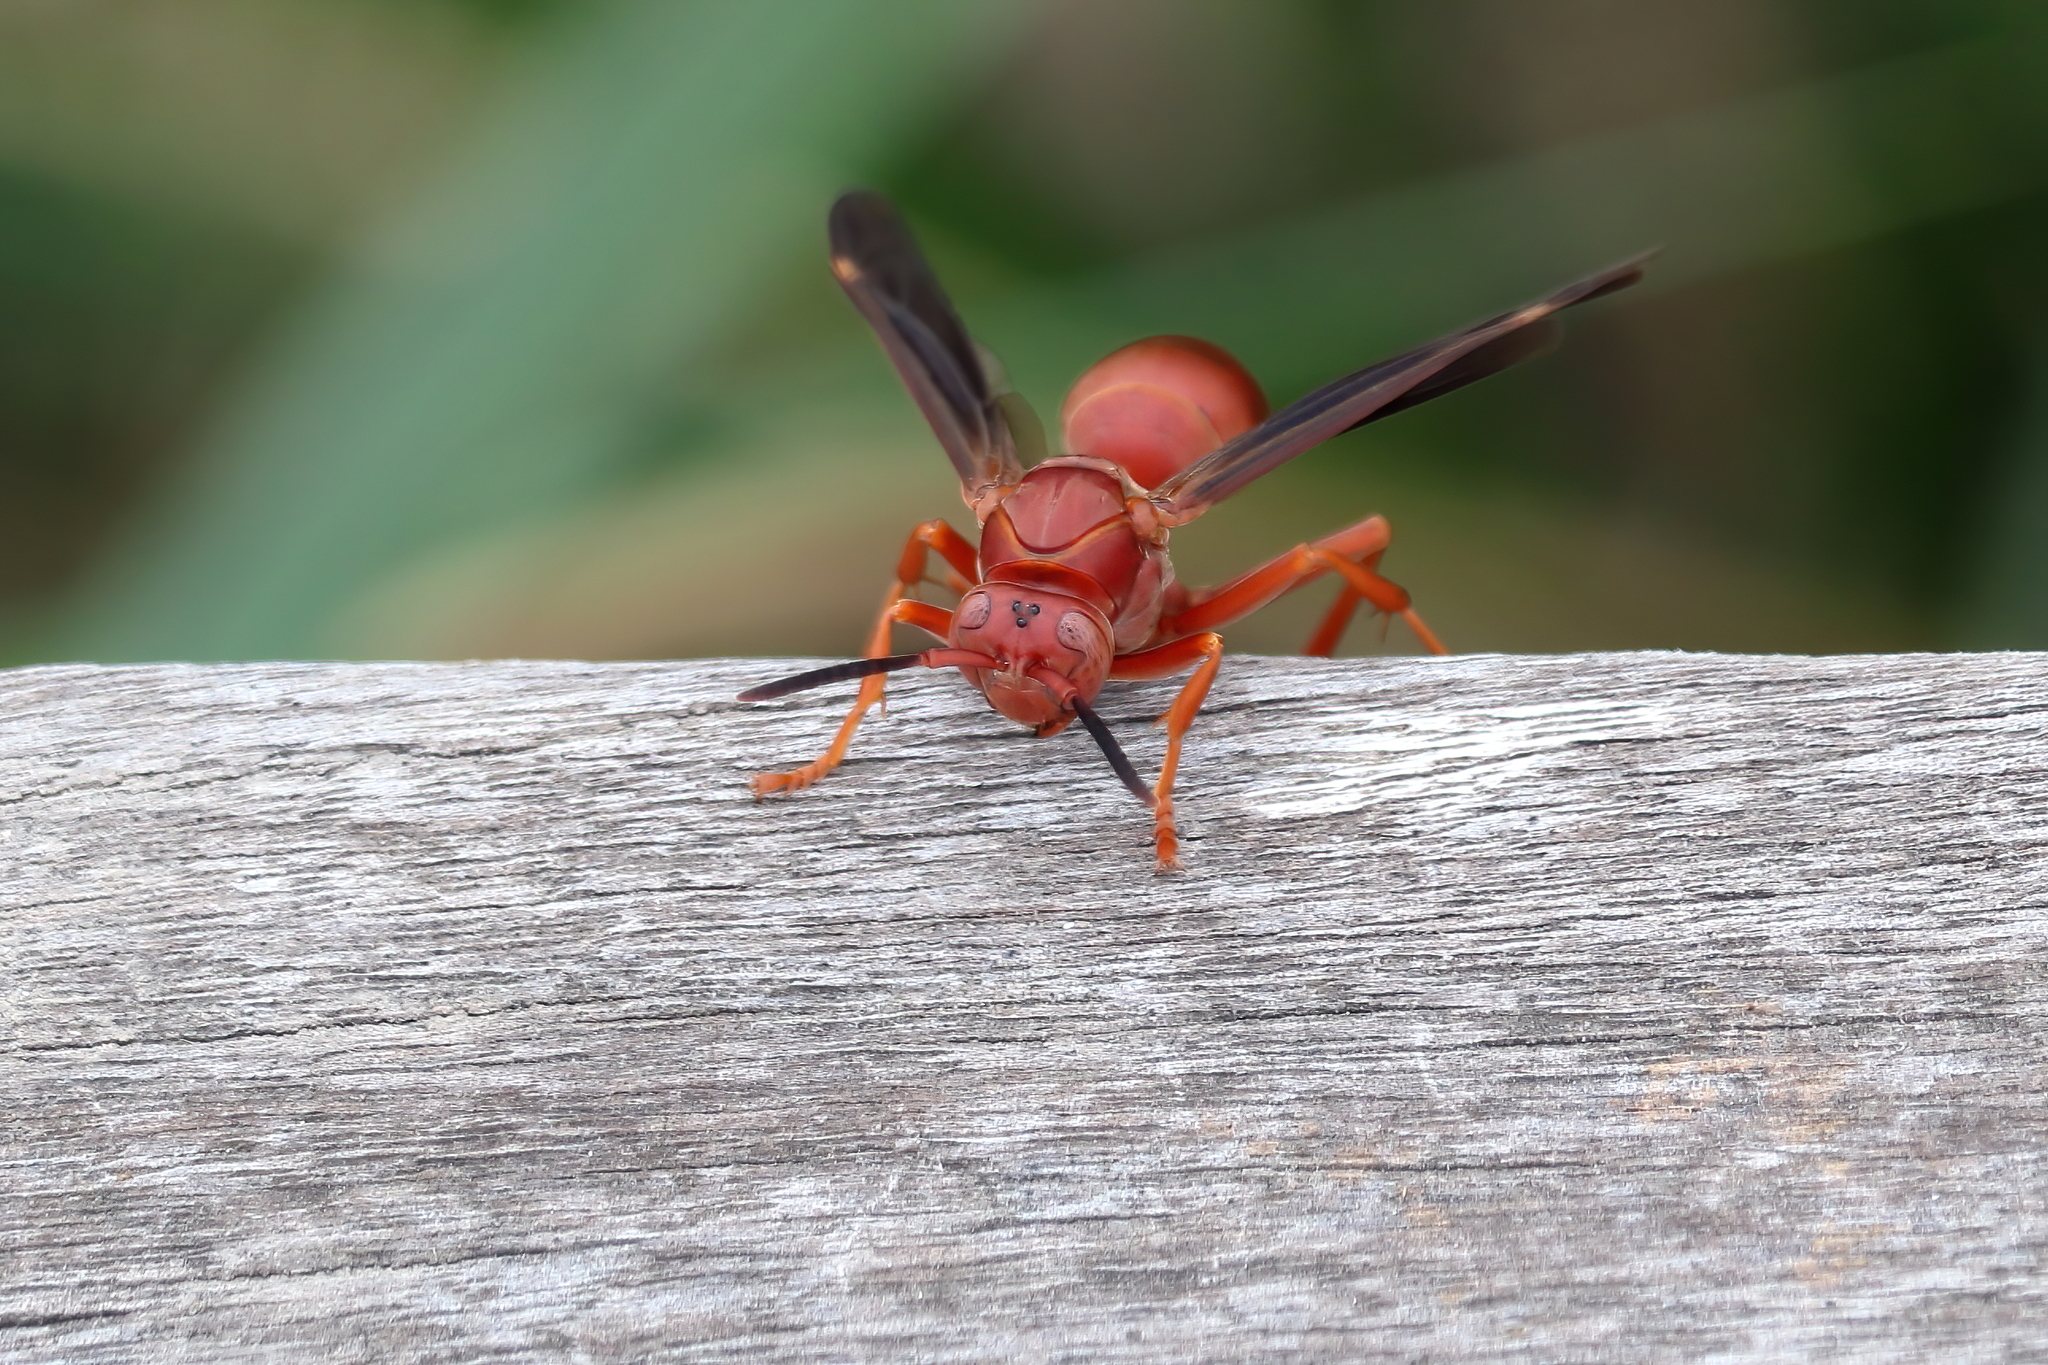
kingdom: Animalia
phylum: Arthropoda
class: Insecta
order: Hymenoptera
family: Vespidae
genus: Fuscopolistes
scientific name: Fuscopolistes
